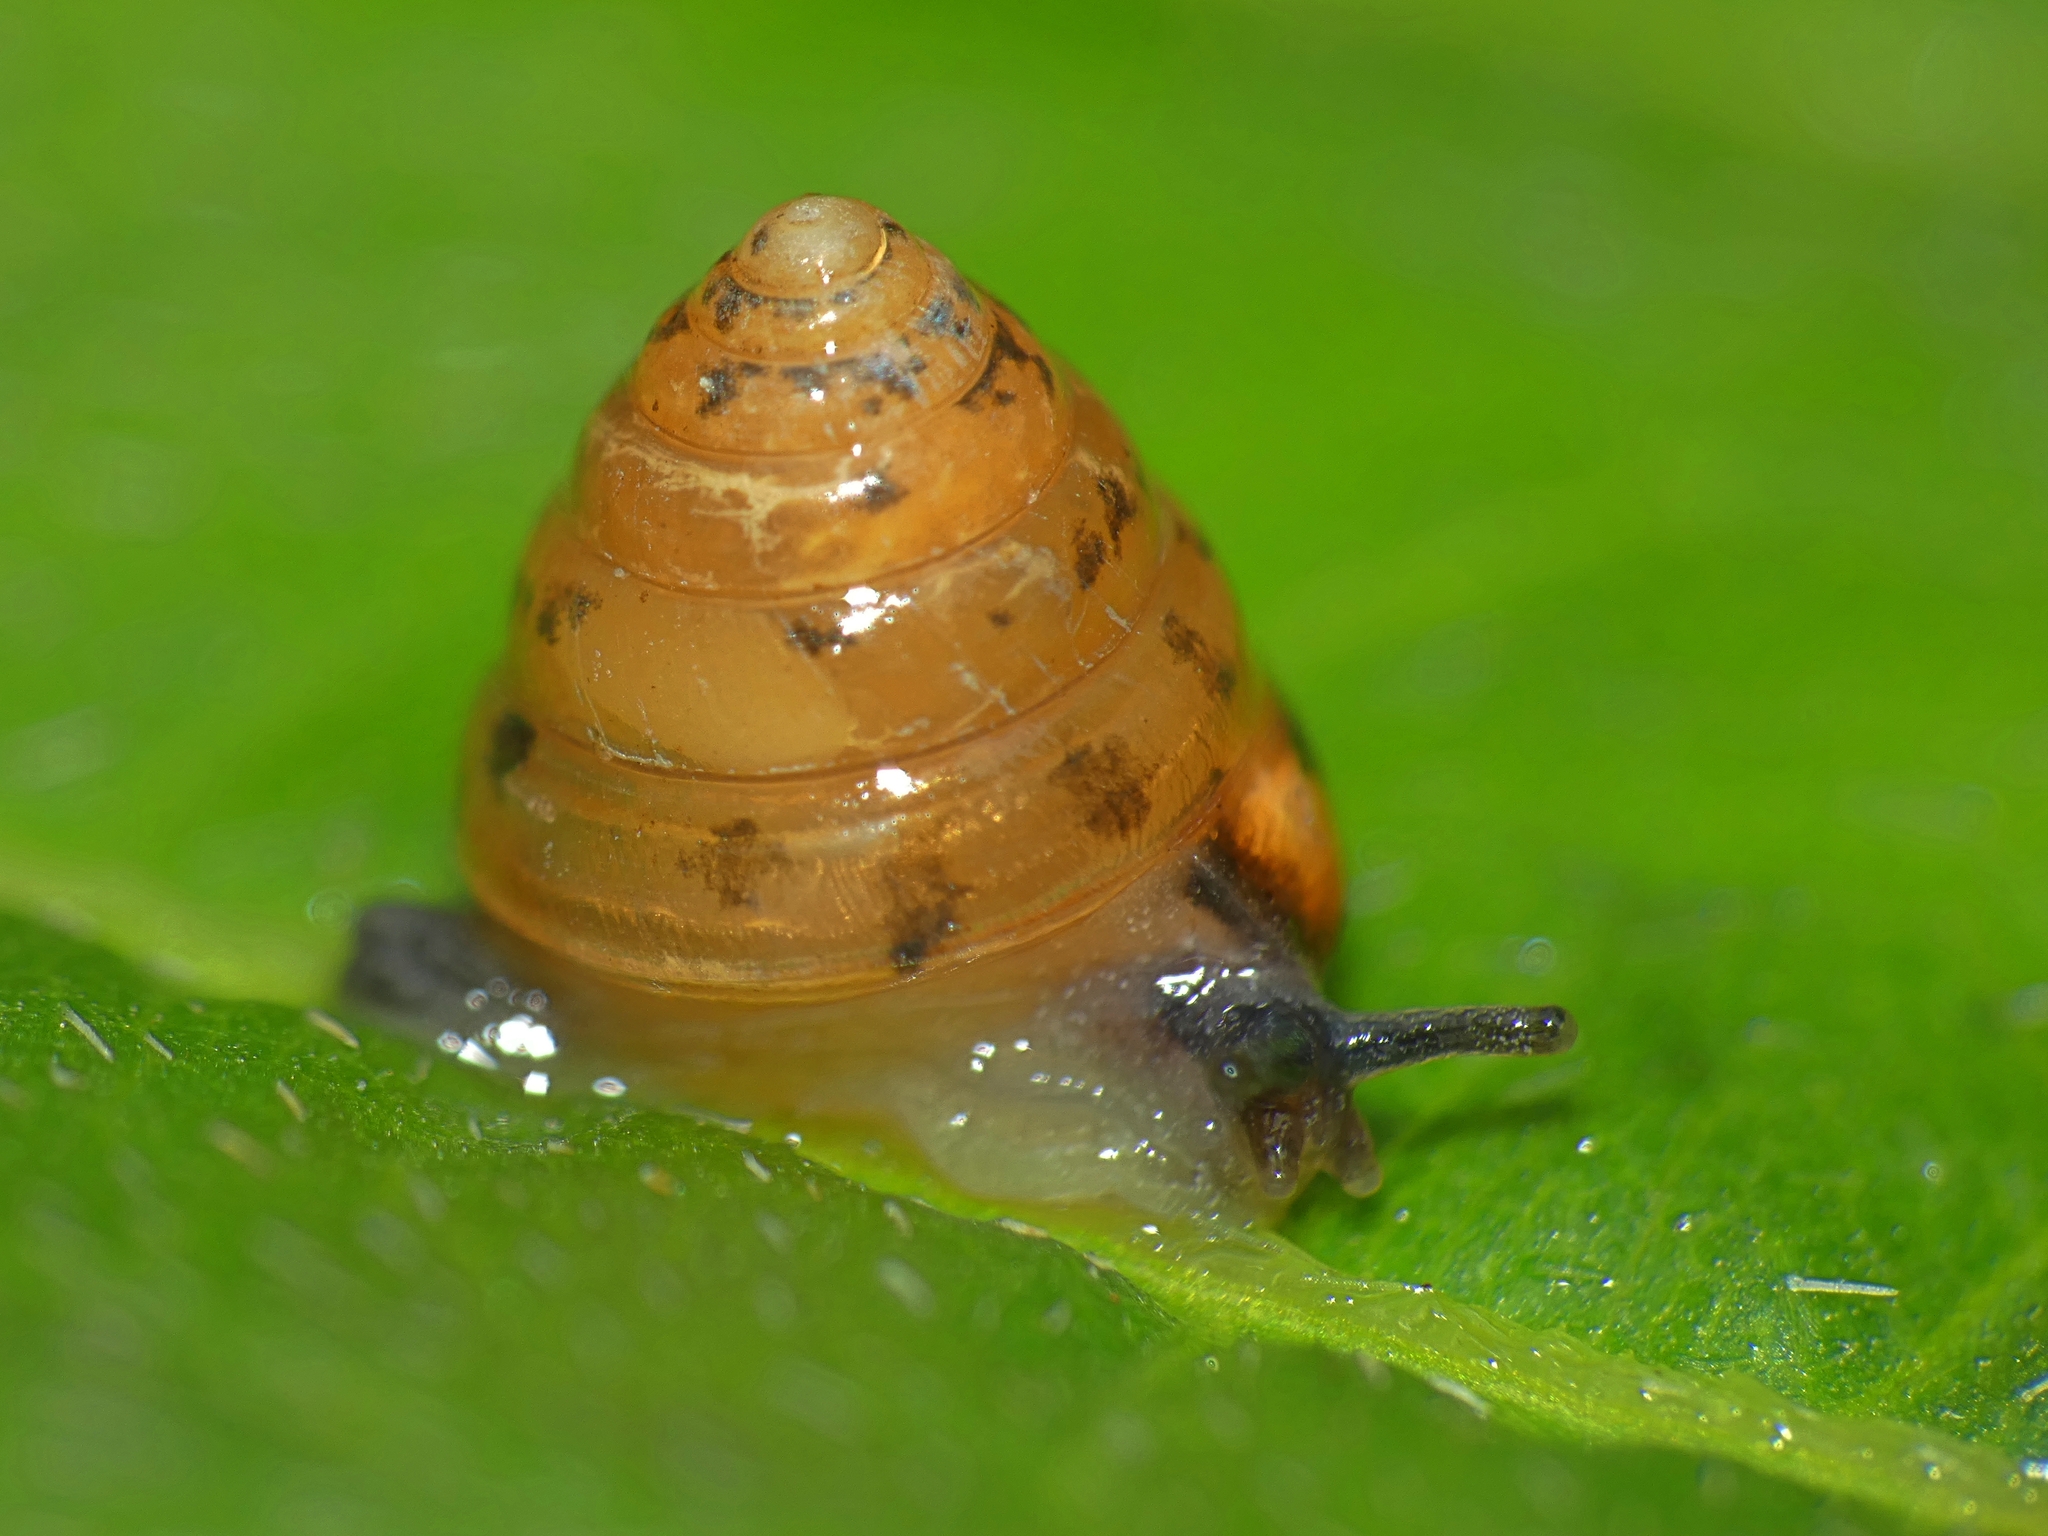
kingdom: Animalia
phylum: Mollusca
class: Gastropoda
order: Stylommatophora
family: Helicarionidae
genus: Sitala
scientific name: Sitala normalis
